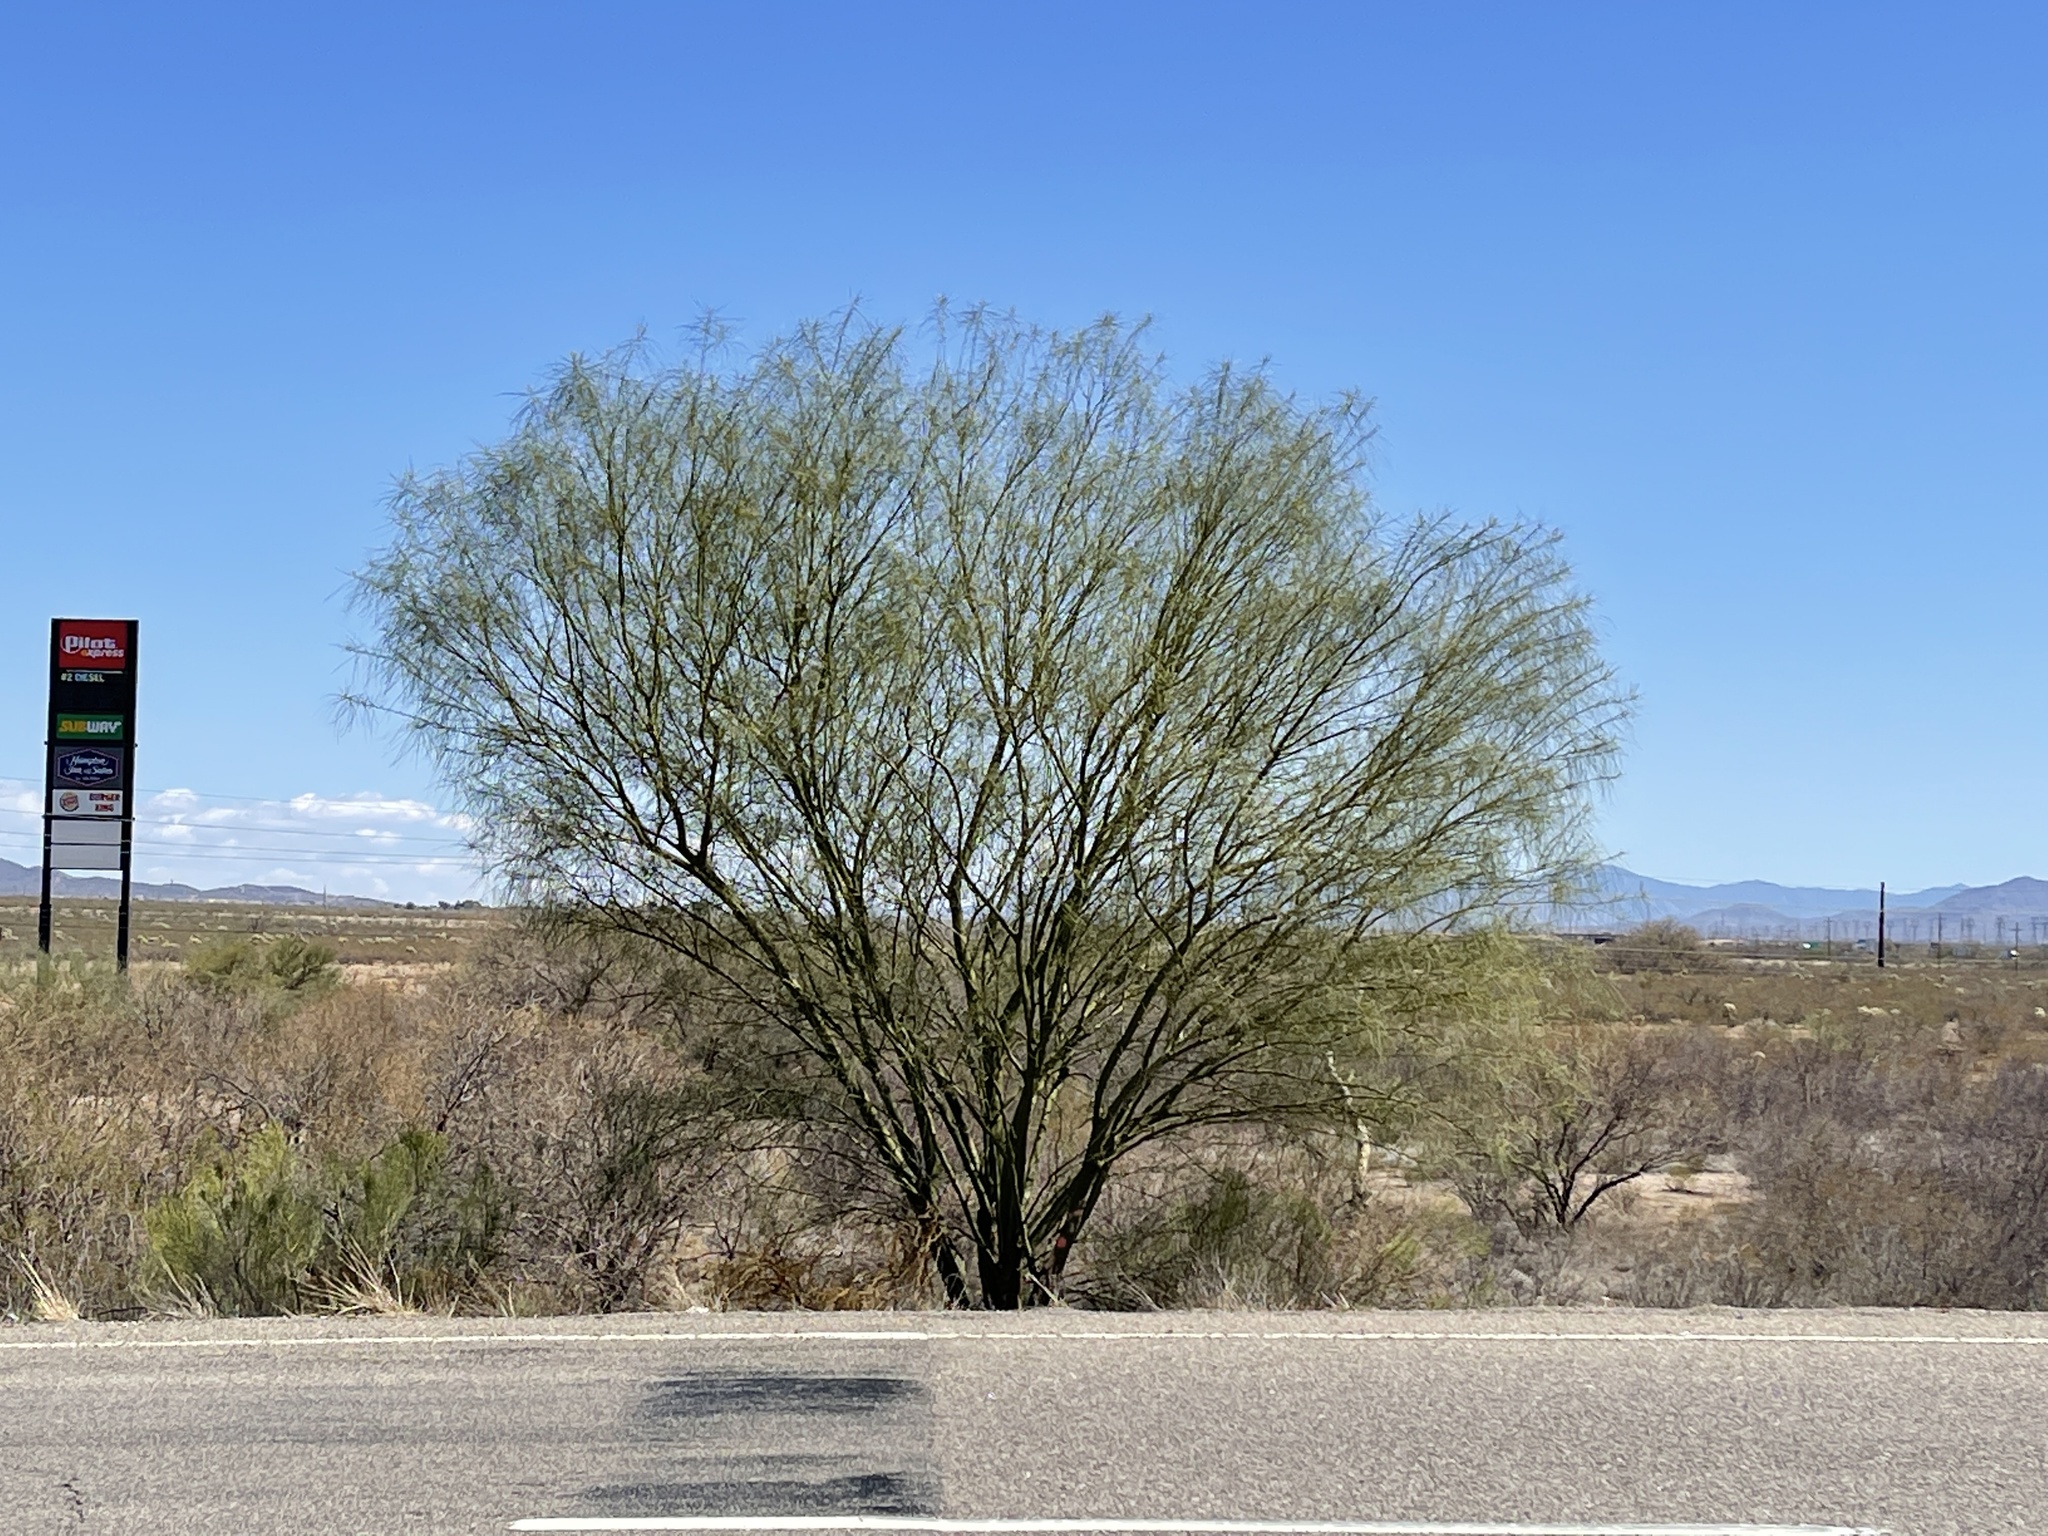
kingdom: Plantae
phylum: Tracheophyta
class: Magnoliopsida
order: Fabales
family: Fabaceae
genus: Parkinsonia
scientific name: Parkinsonia aculeata
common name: Jerusalem thorn
